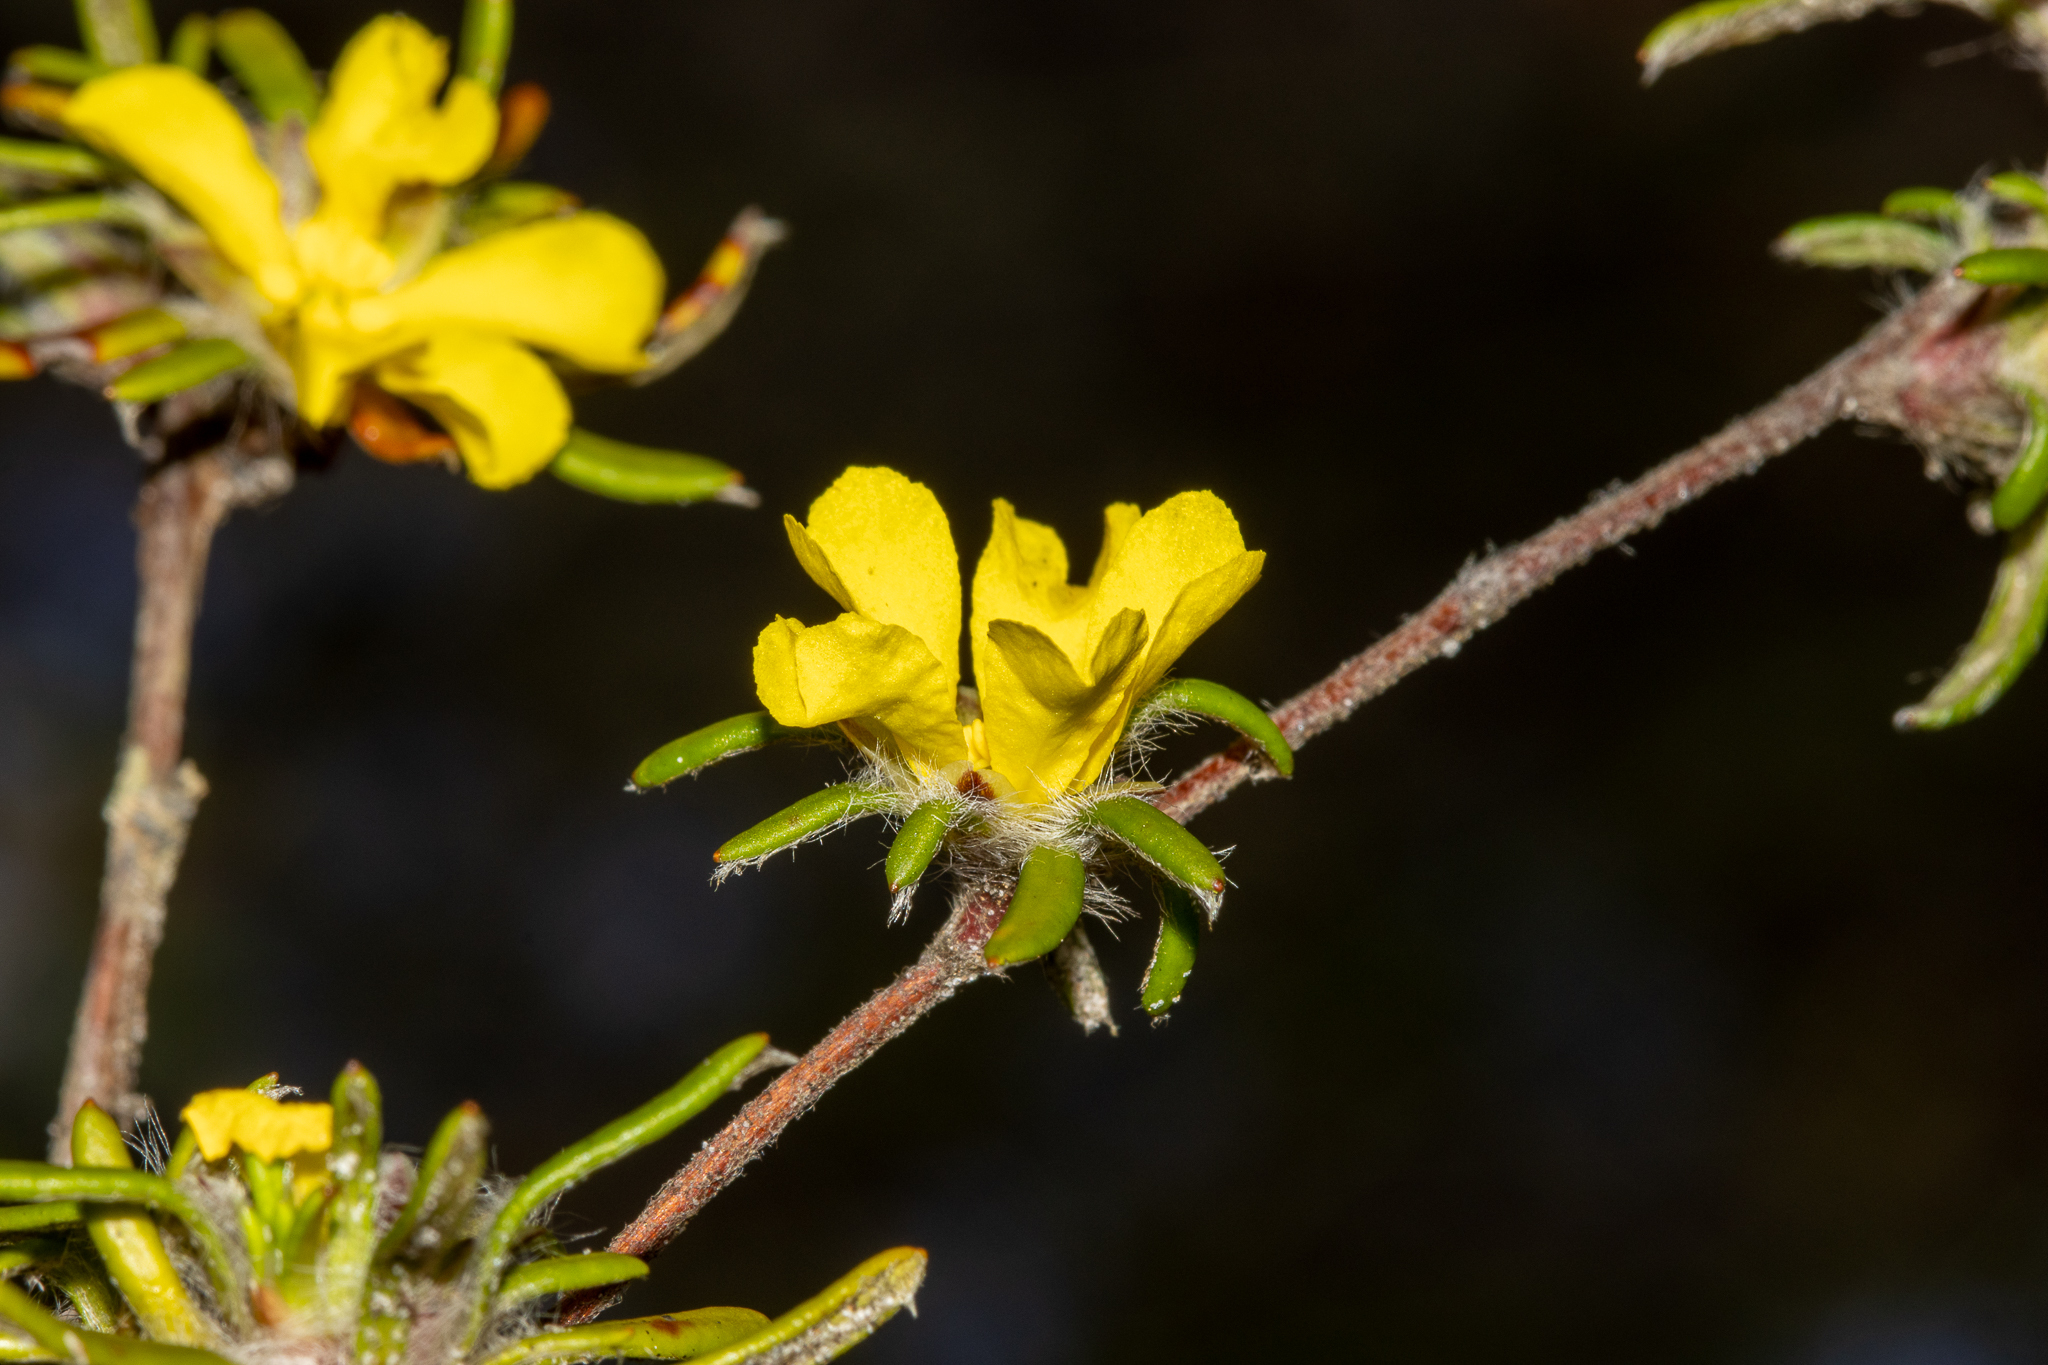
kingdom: Plantae
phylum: Tracheophyta
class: Magnoliopsida
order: Dilleniales
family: Dilleniaceae
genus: Hibbertia
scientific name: Hibbertia depressa
